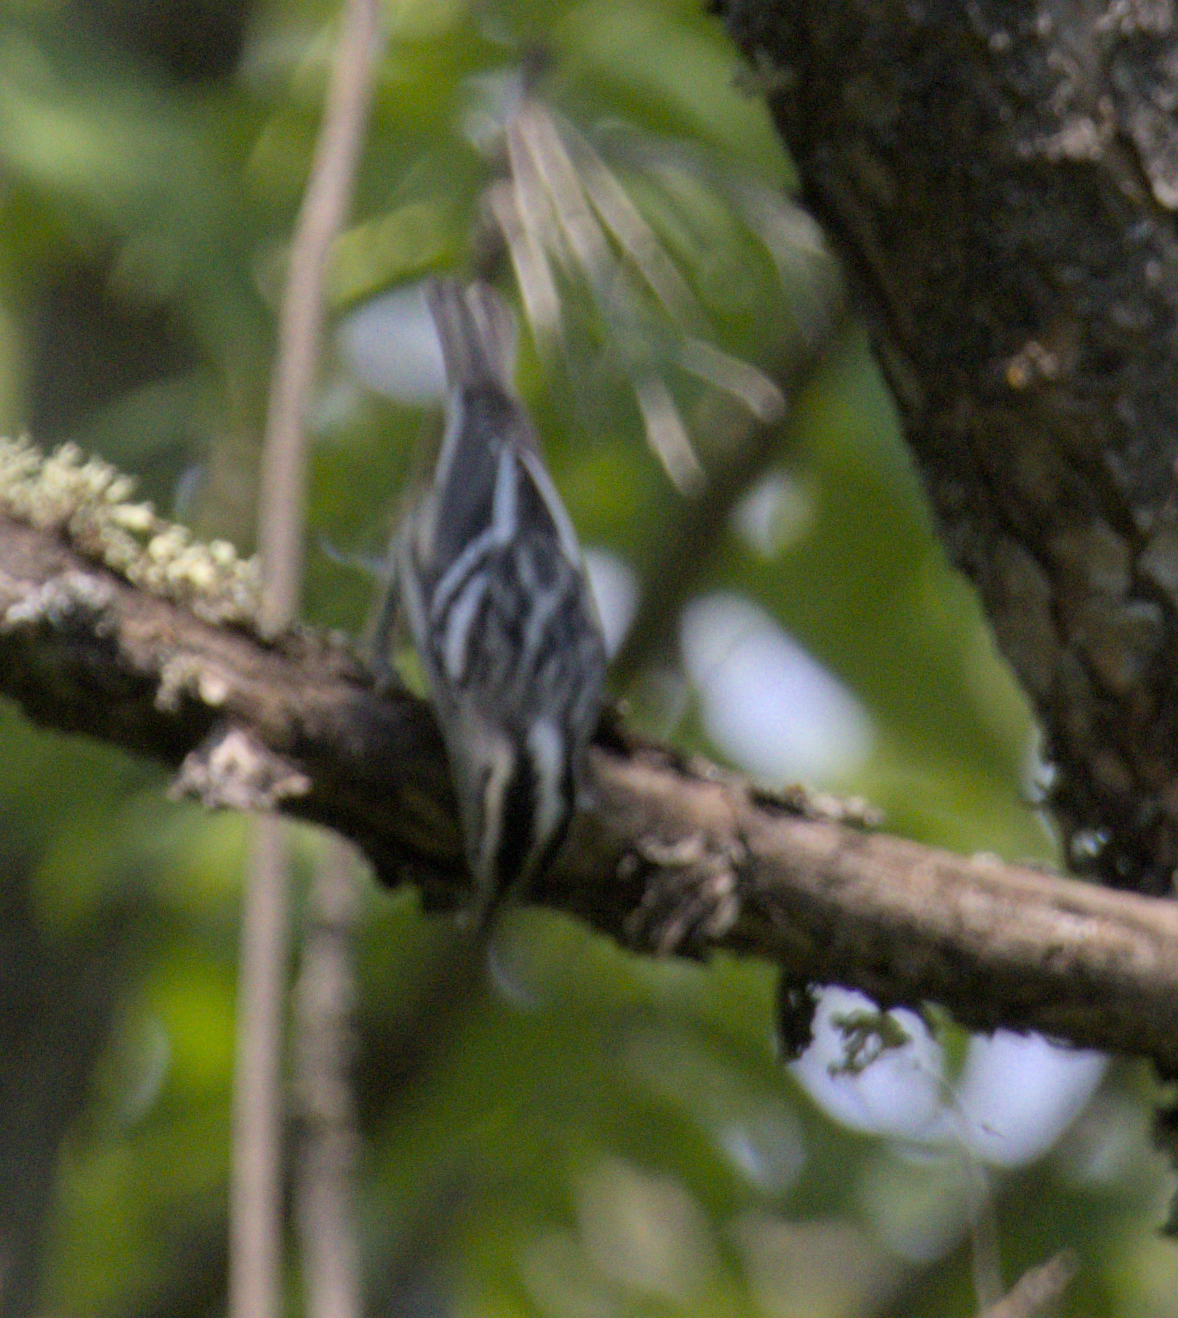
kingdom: Animalia
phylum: Chordata
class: Aves
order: Passeriformes
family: Parulidae
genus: Mniotilta
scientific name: Mniotilta varia
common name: Black-and-white warbler
